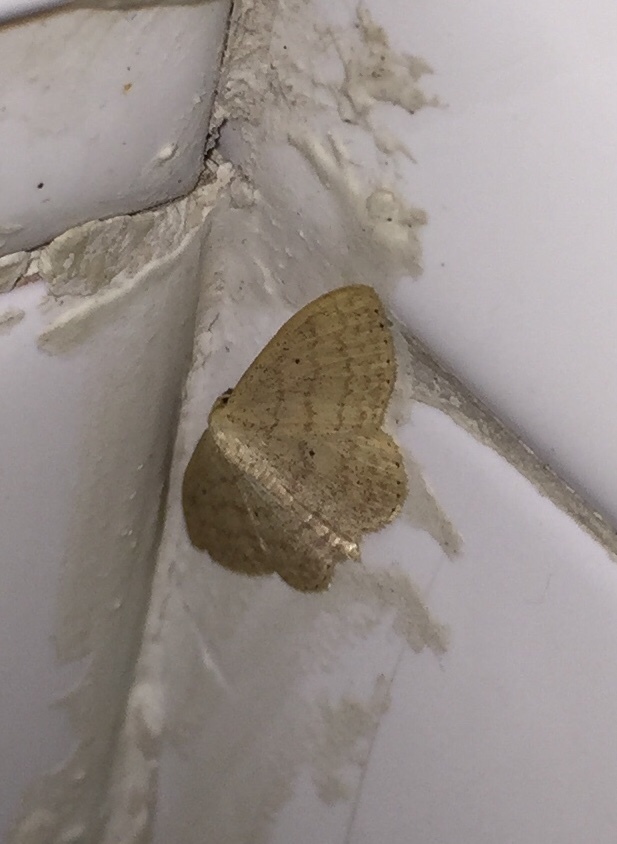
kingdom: Animalia
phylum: Arthropoda
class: Insecta
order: Lepidoptera
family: Geometridae
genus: Scopula
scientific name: Scopula minorata
